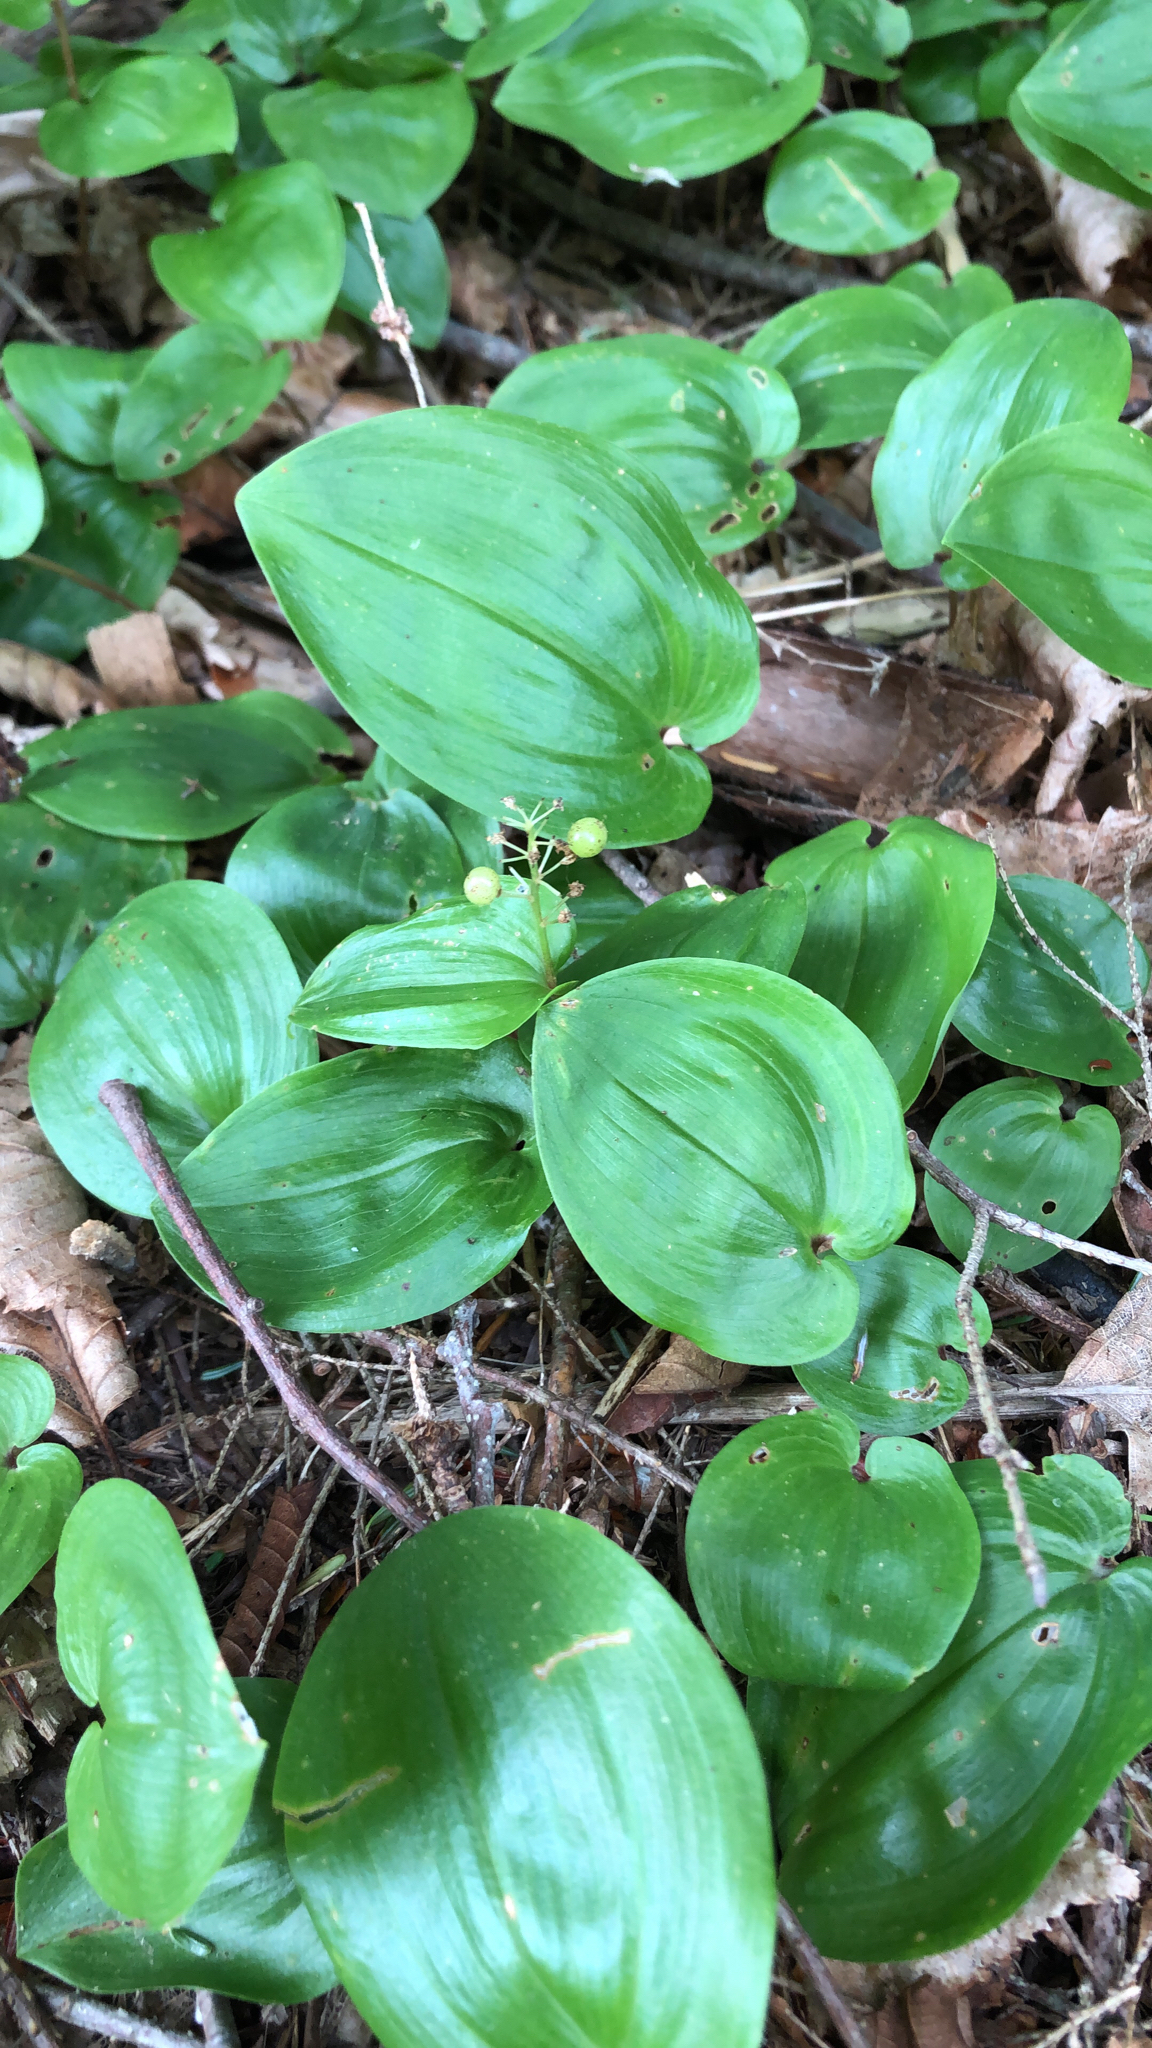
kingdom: Plantae
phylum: Tracheophyta
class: Liliopsida
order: Asparagales
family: Asparagaceae
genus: Maianthemum
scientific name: Maianthemum canadense
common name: False lily-of-the-valley
